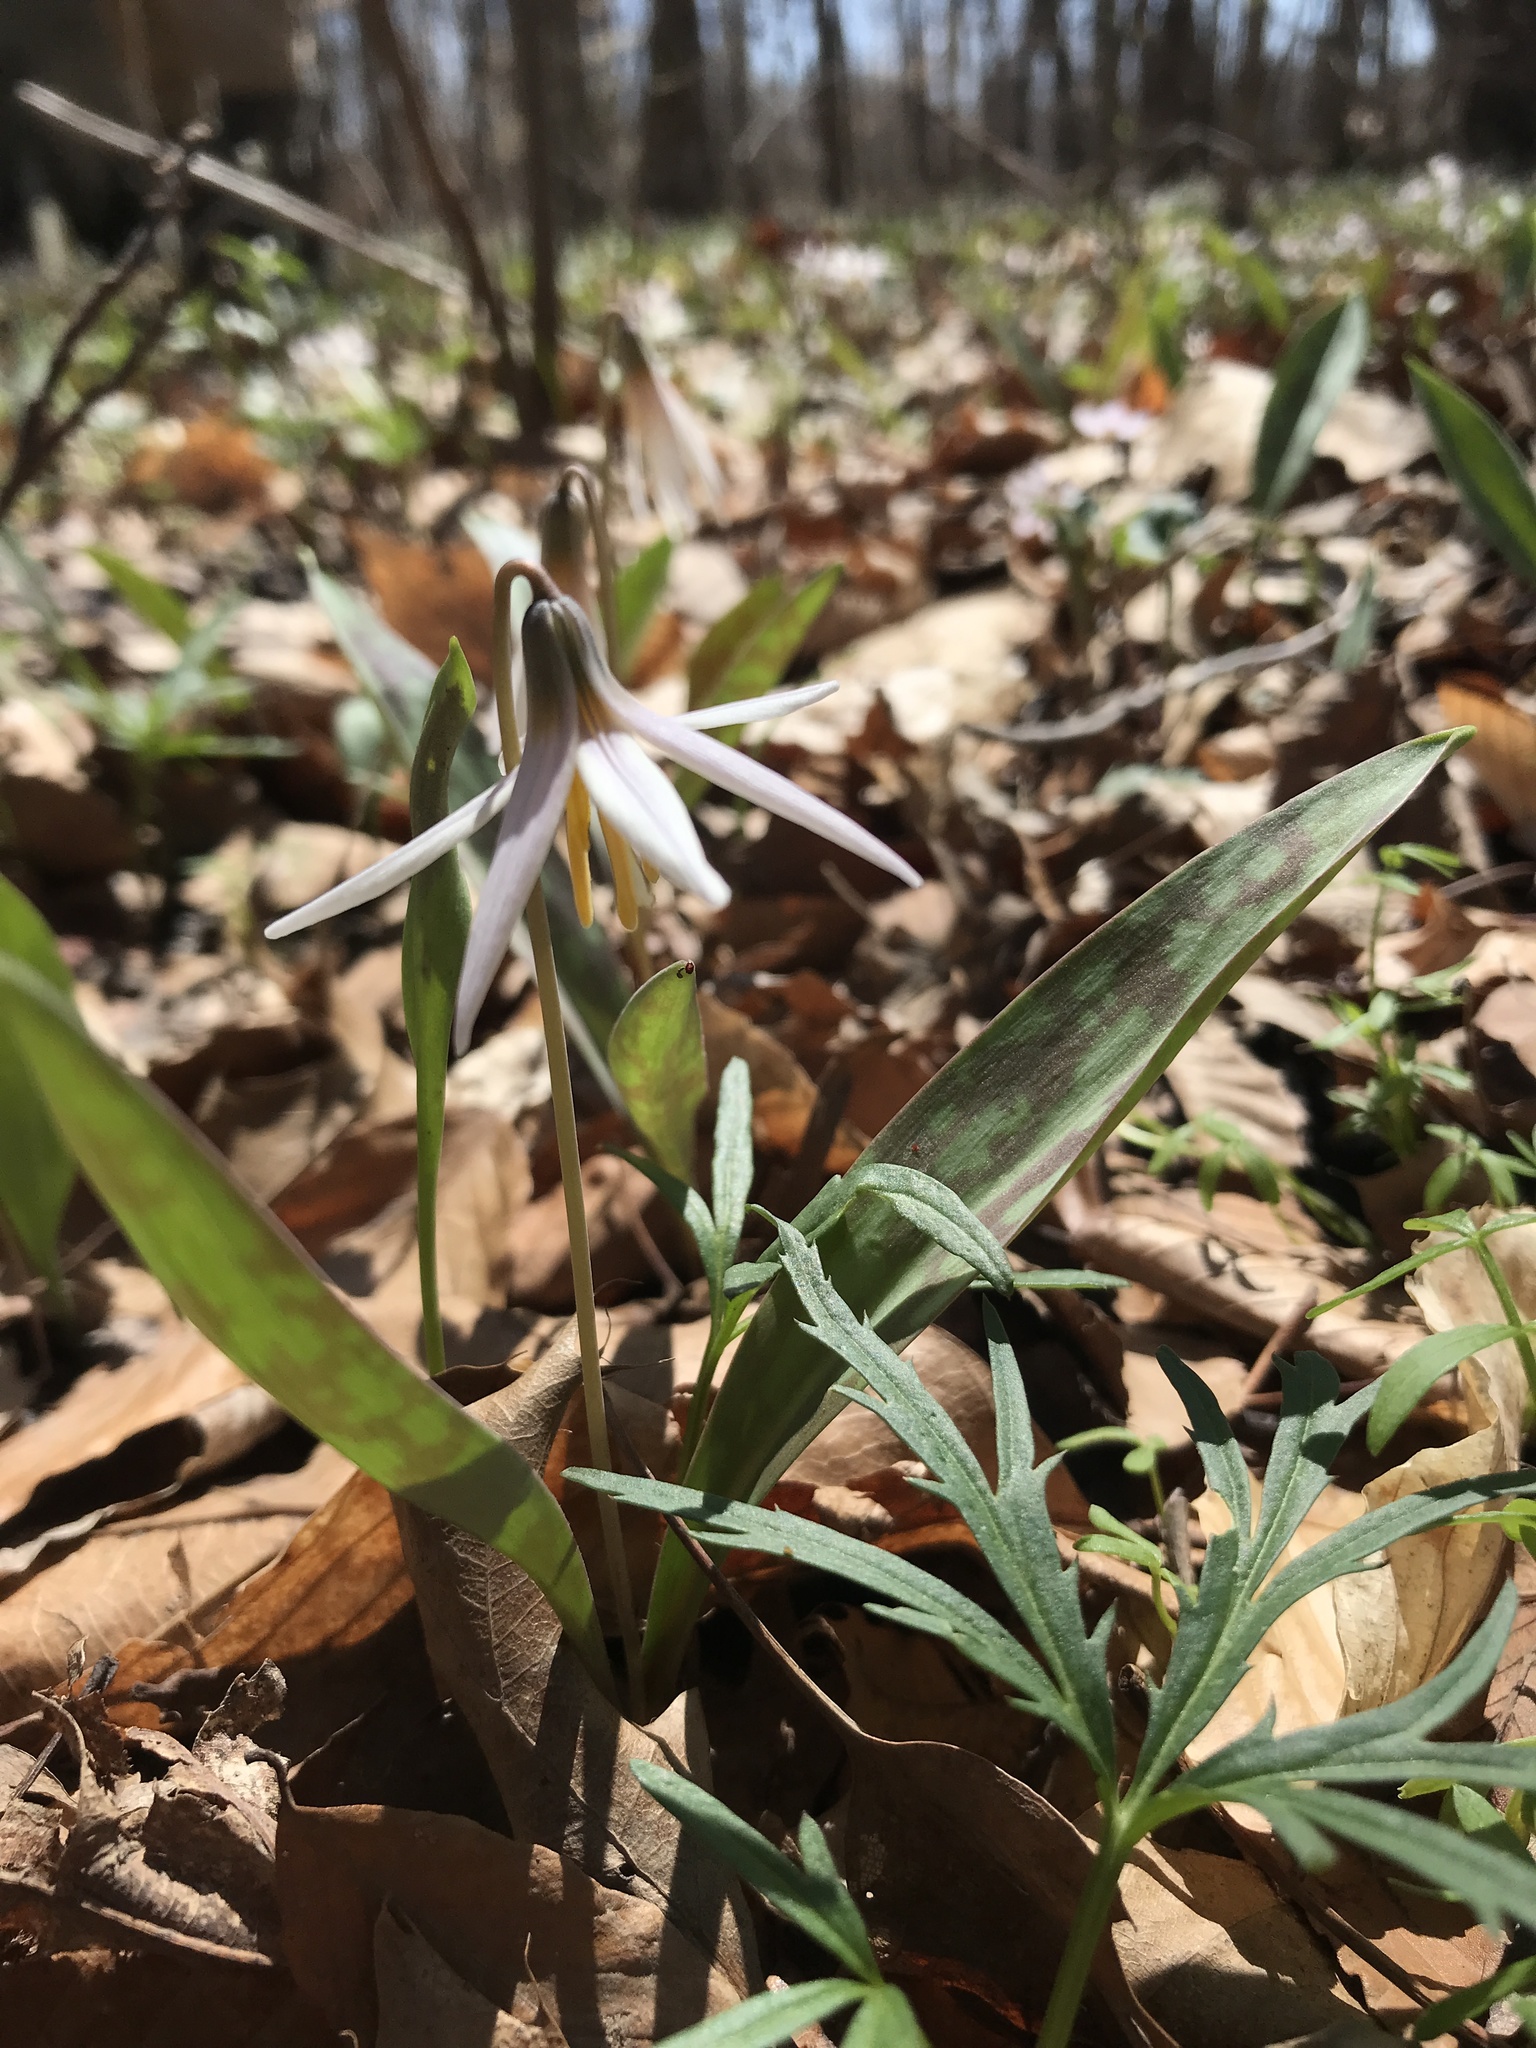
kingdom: Plantae
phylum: Tracheophyta
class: Liliopsida
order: Liliales
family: Liliaceae
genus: Erythronium
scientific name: Erythronium albidum
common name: White trout-lily
